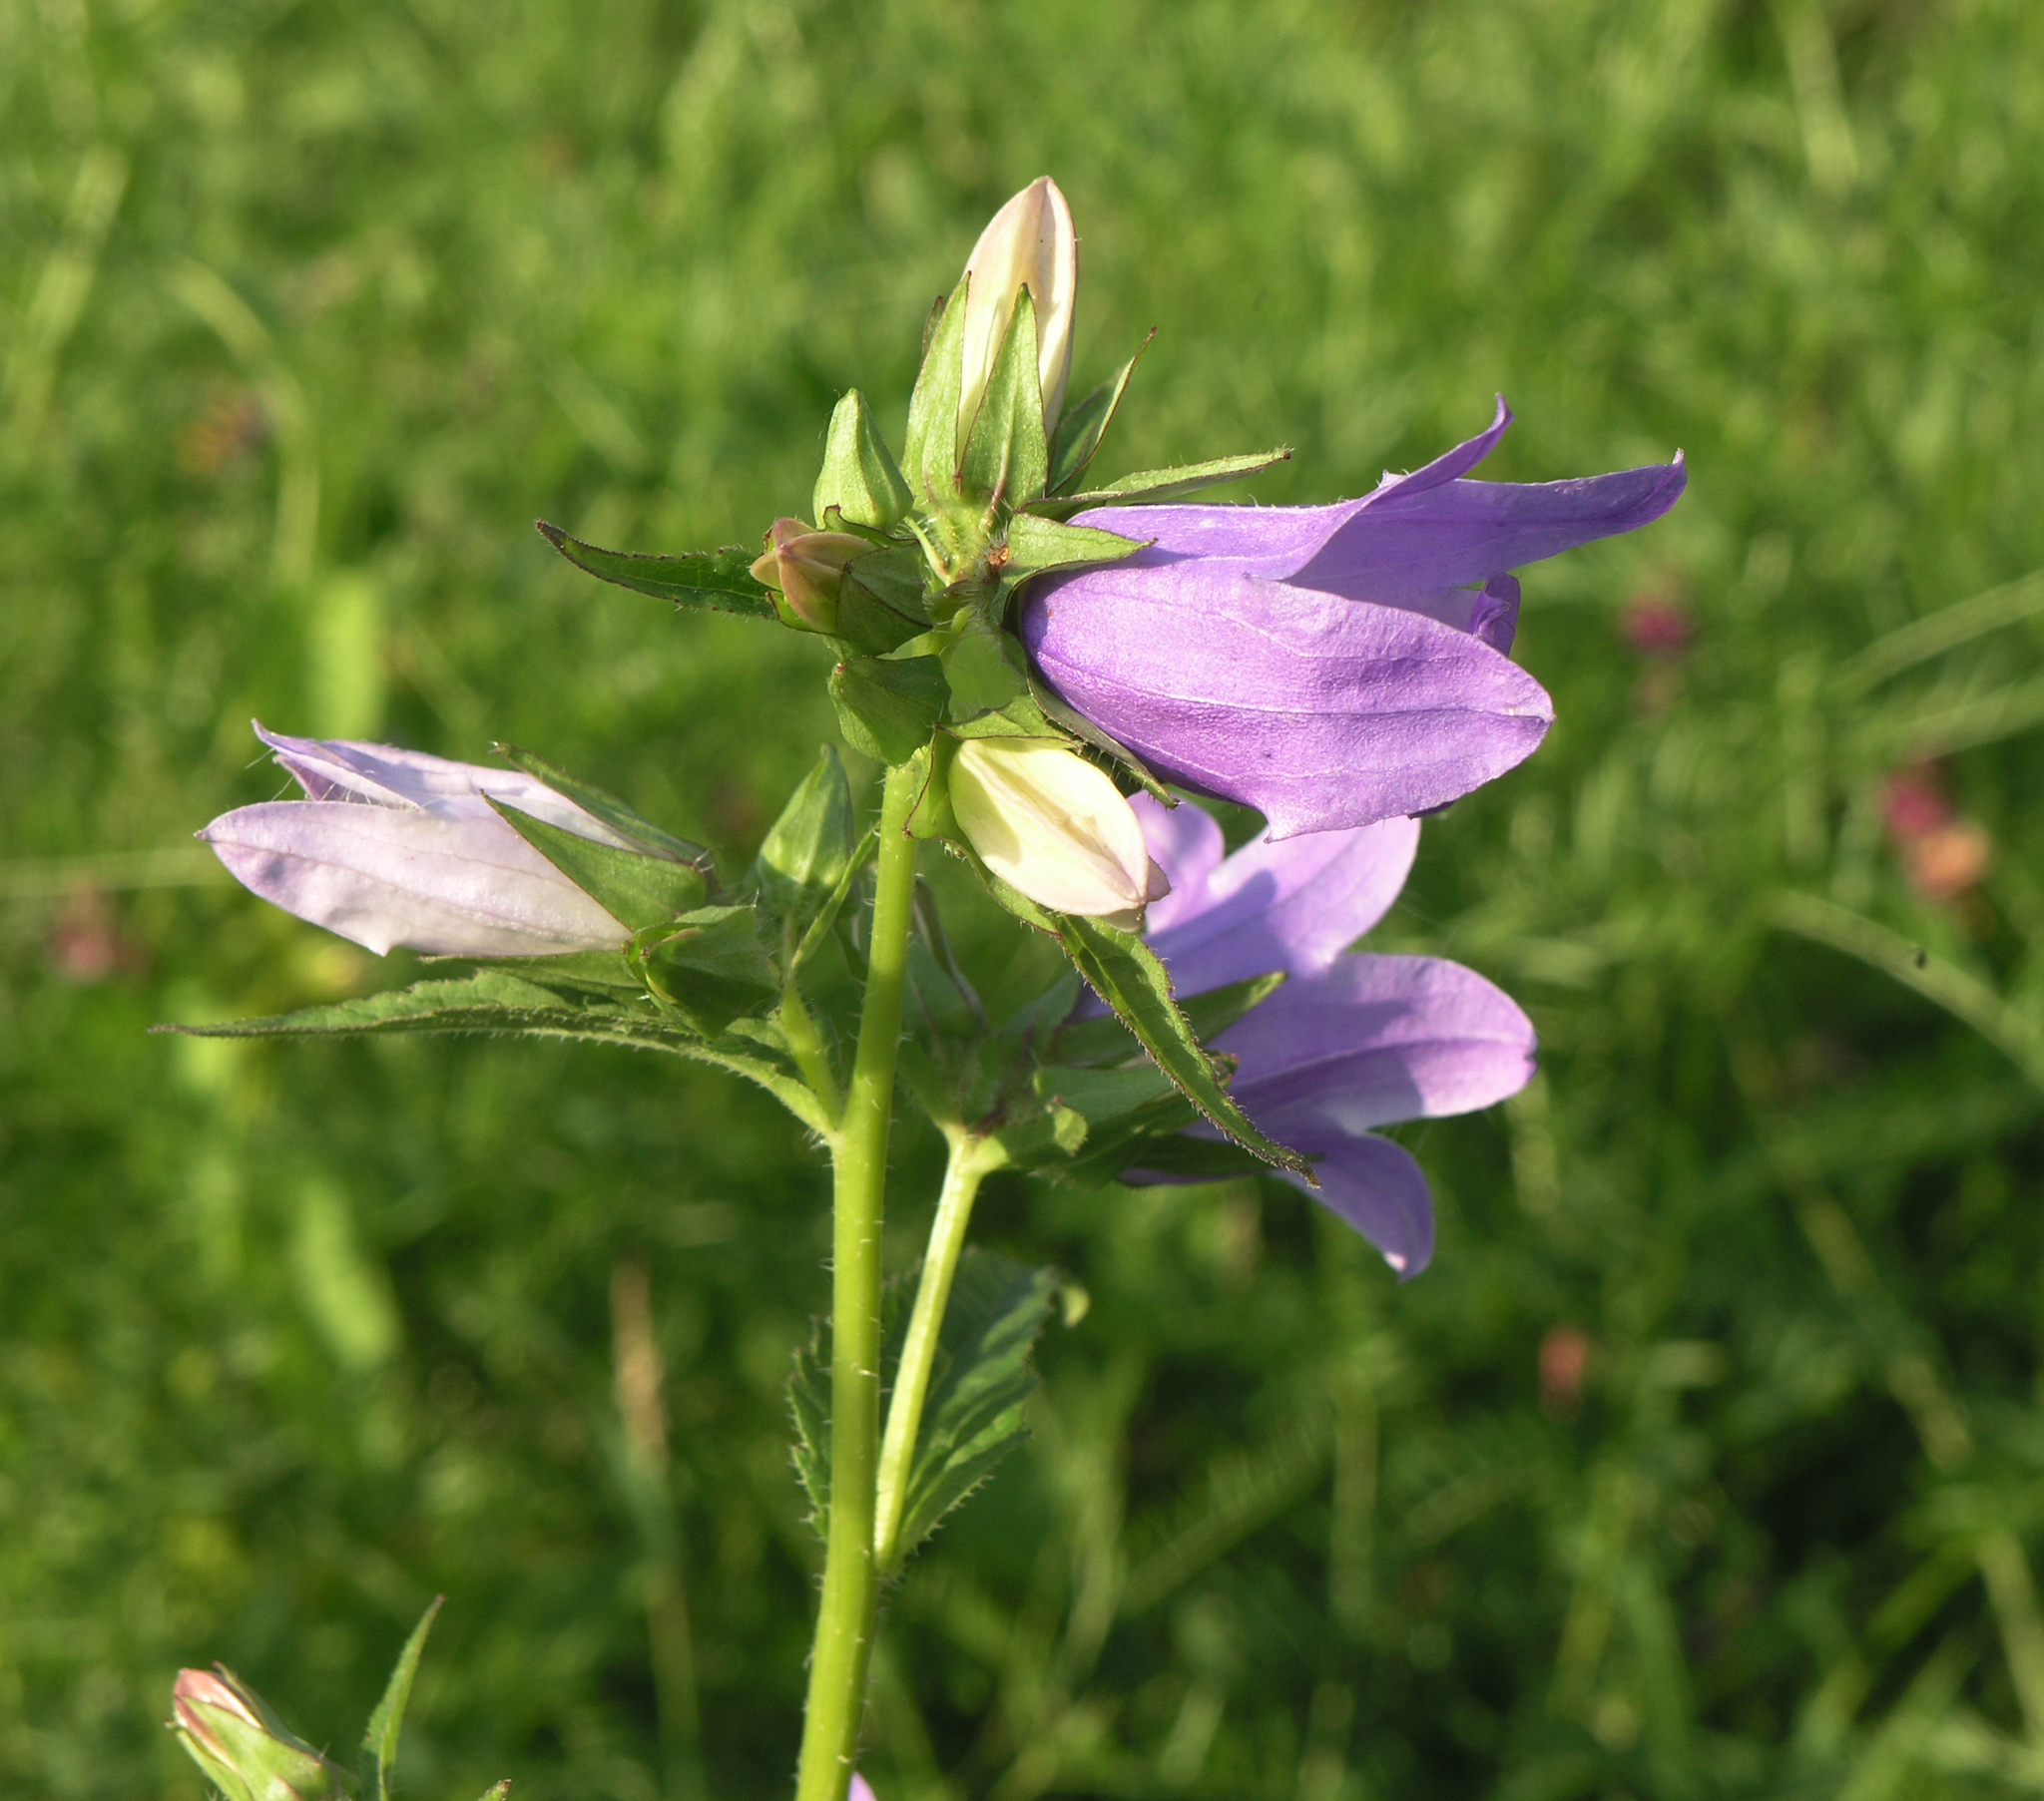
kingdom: Plantae
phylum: Tracheophyta
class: Magnoliopsida
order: Asterales
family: Campanulaceae
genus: Campanula
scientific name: Campanula trachelium
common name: Nettle-leaved bellflower
